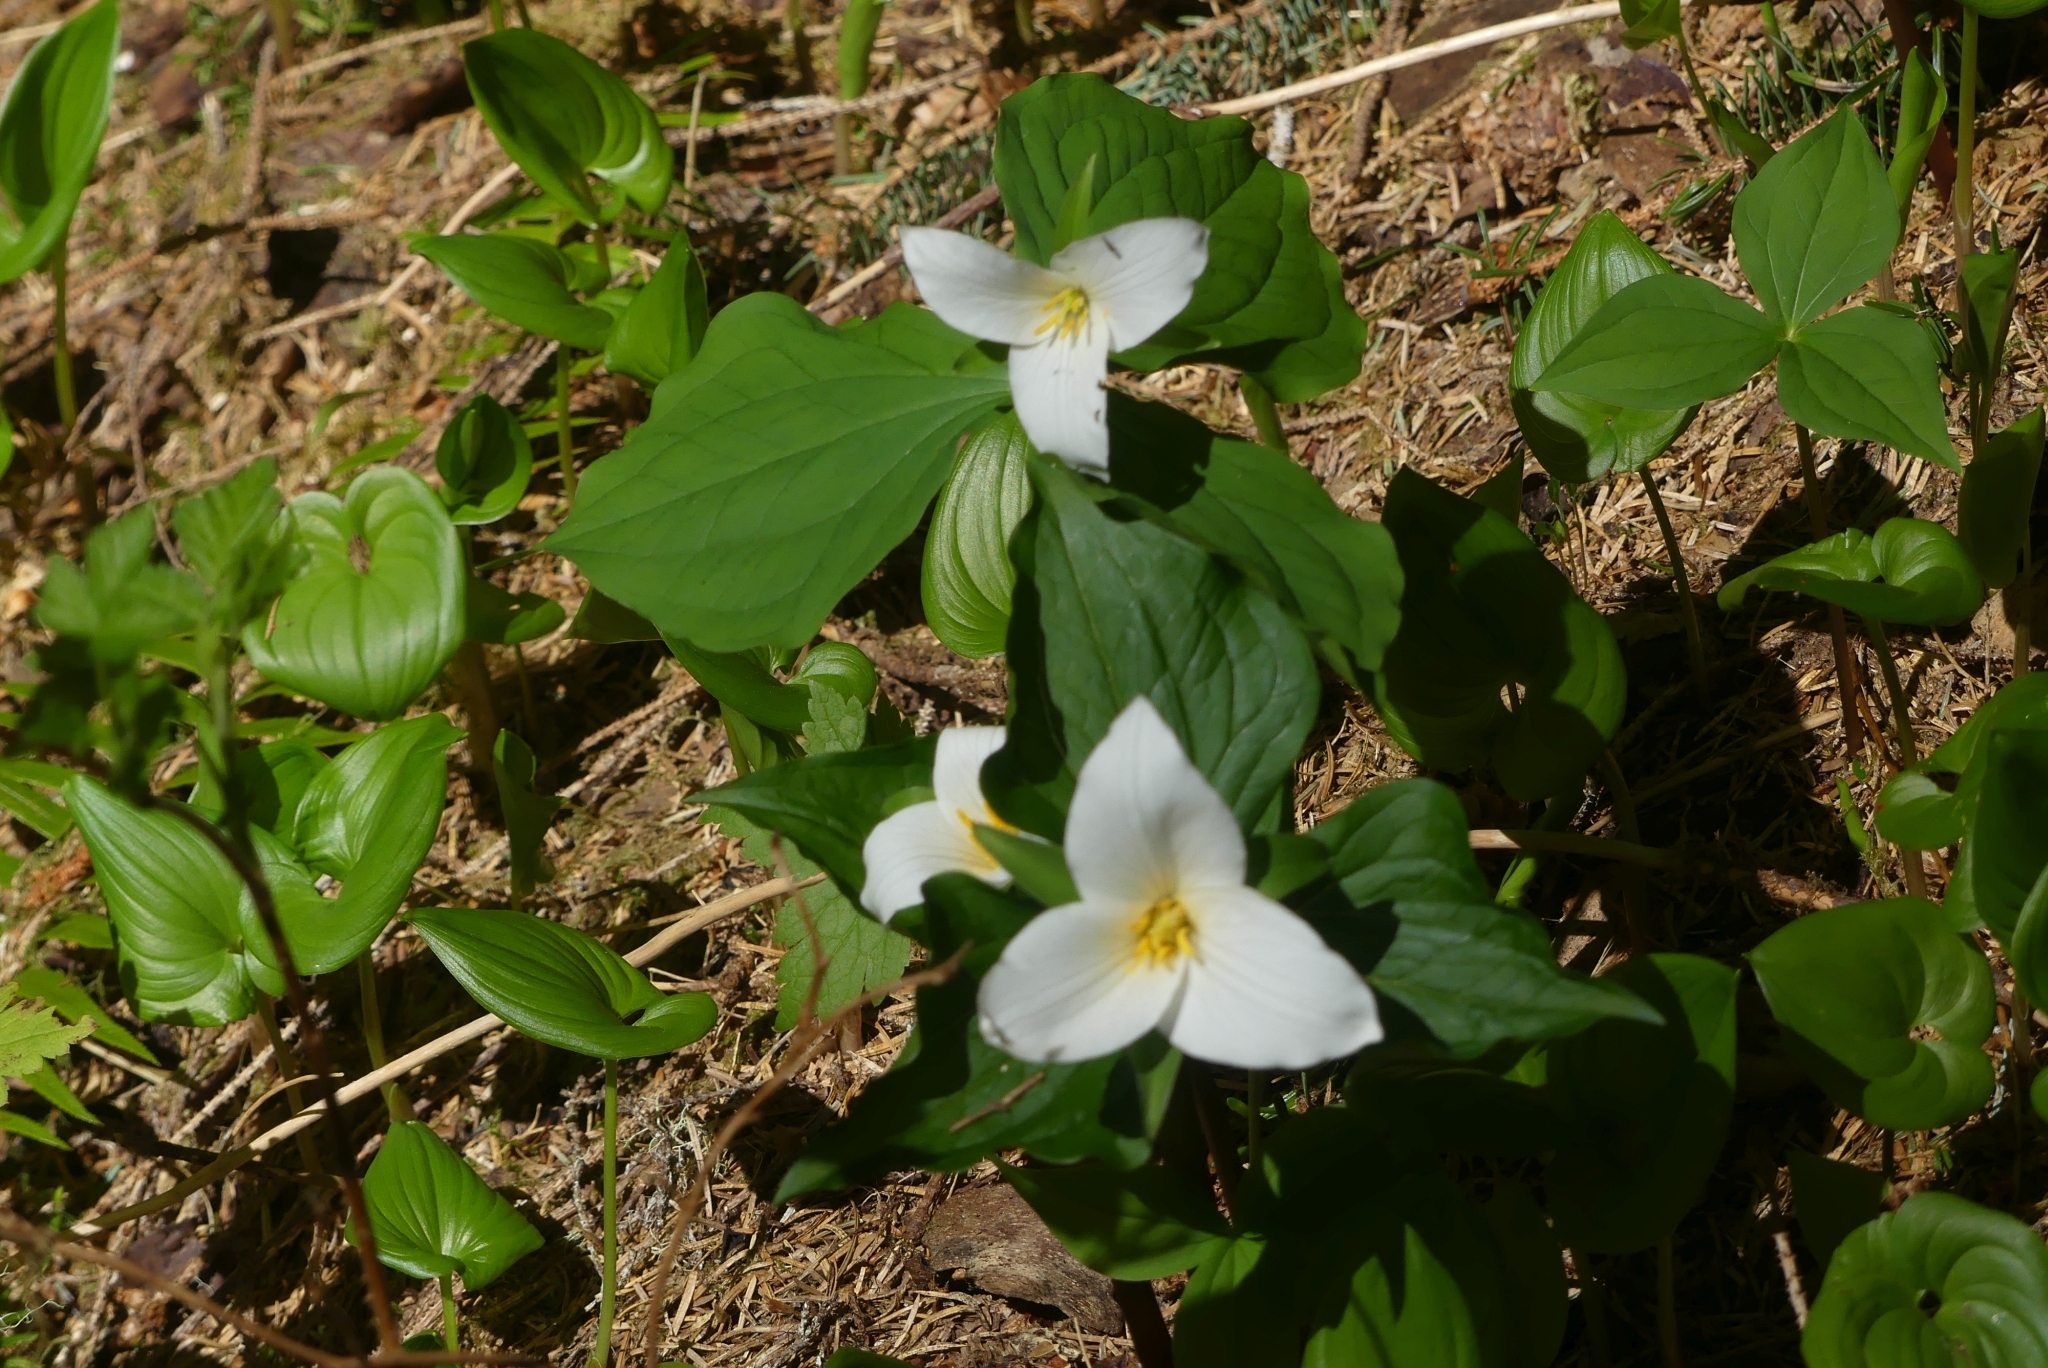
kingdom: Plantae
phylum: Tracheophyta
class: Liliopsida
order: Liliales
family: Melanthiaceae
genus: Trillium
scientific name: Trillium ovatum
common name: Pacific trillium
